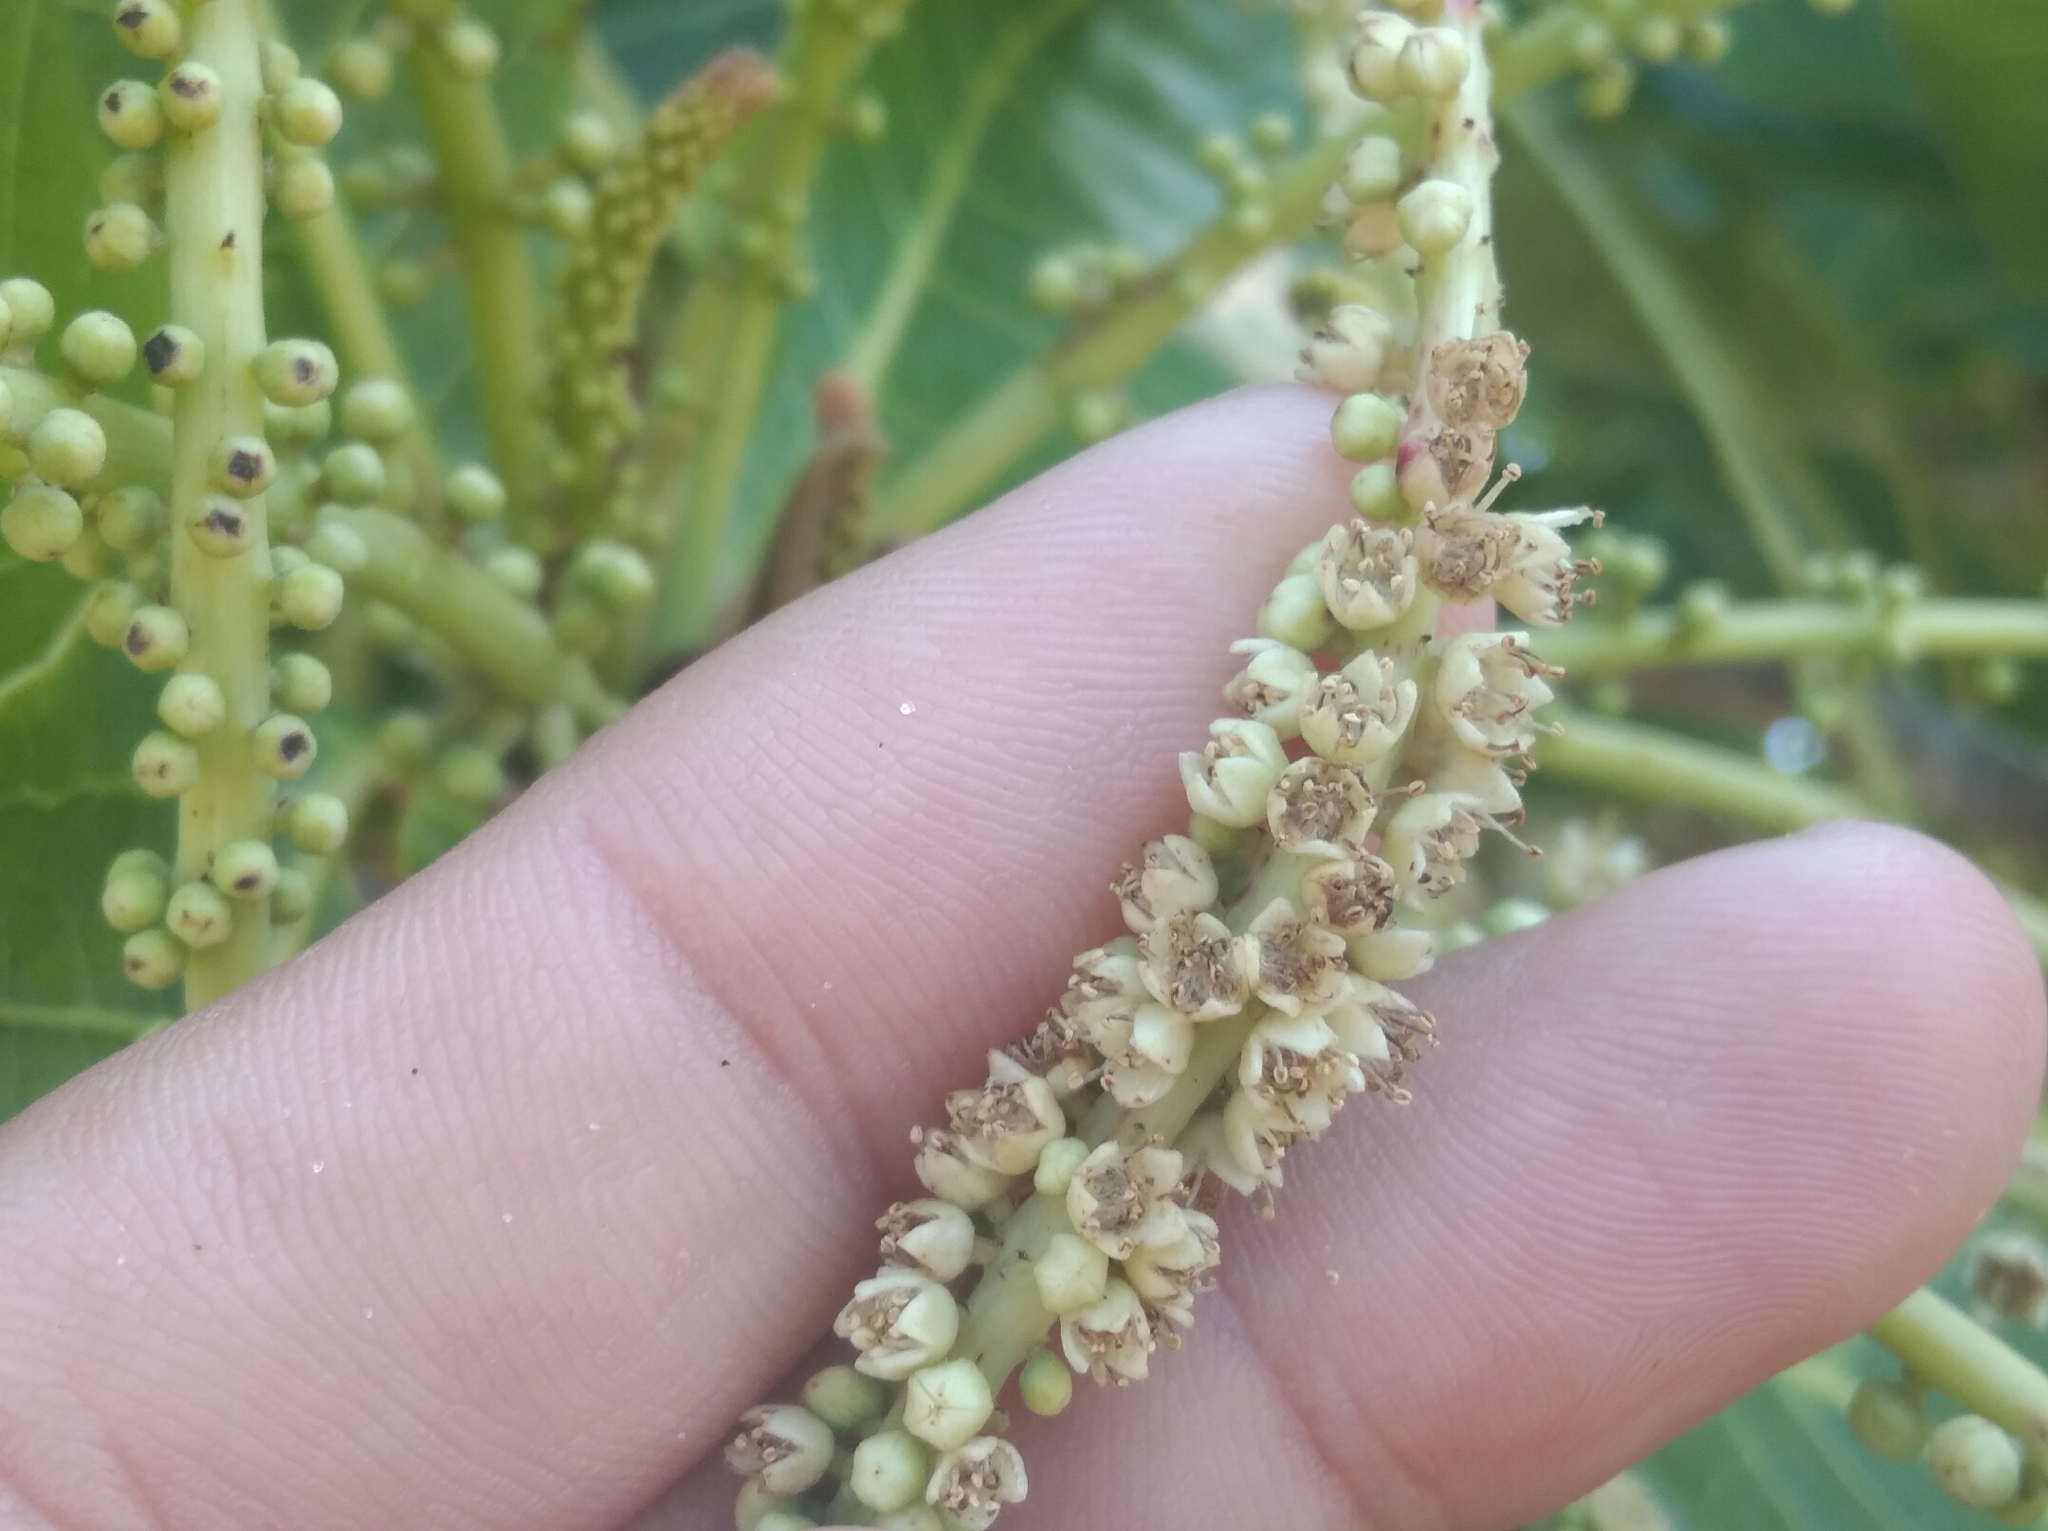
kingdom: Plantae
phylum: Tracheophyta
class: Magnoliopsida
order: Myrtales
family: Combretaceae
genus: Terminalia
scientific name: Terminalia catappa
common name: Tropical almond
